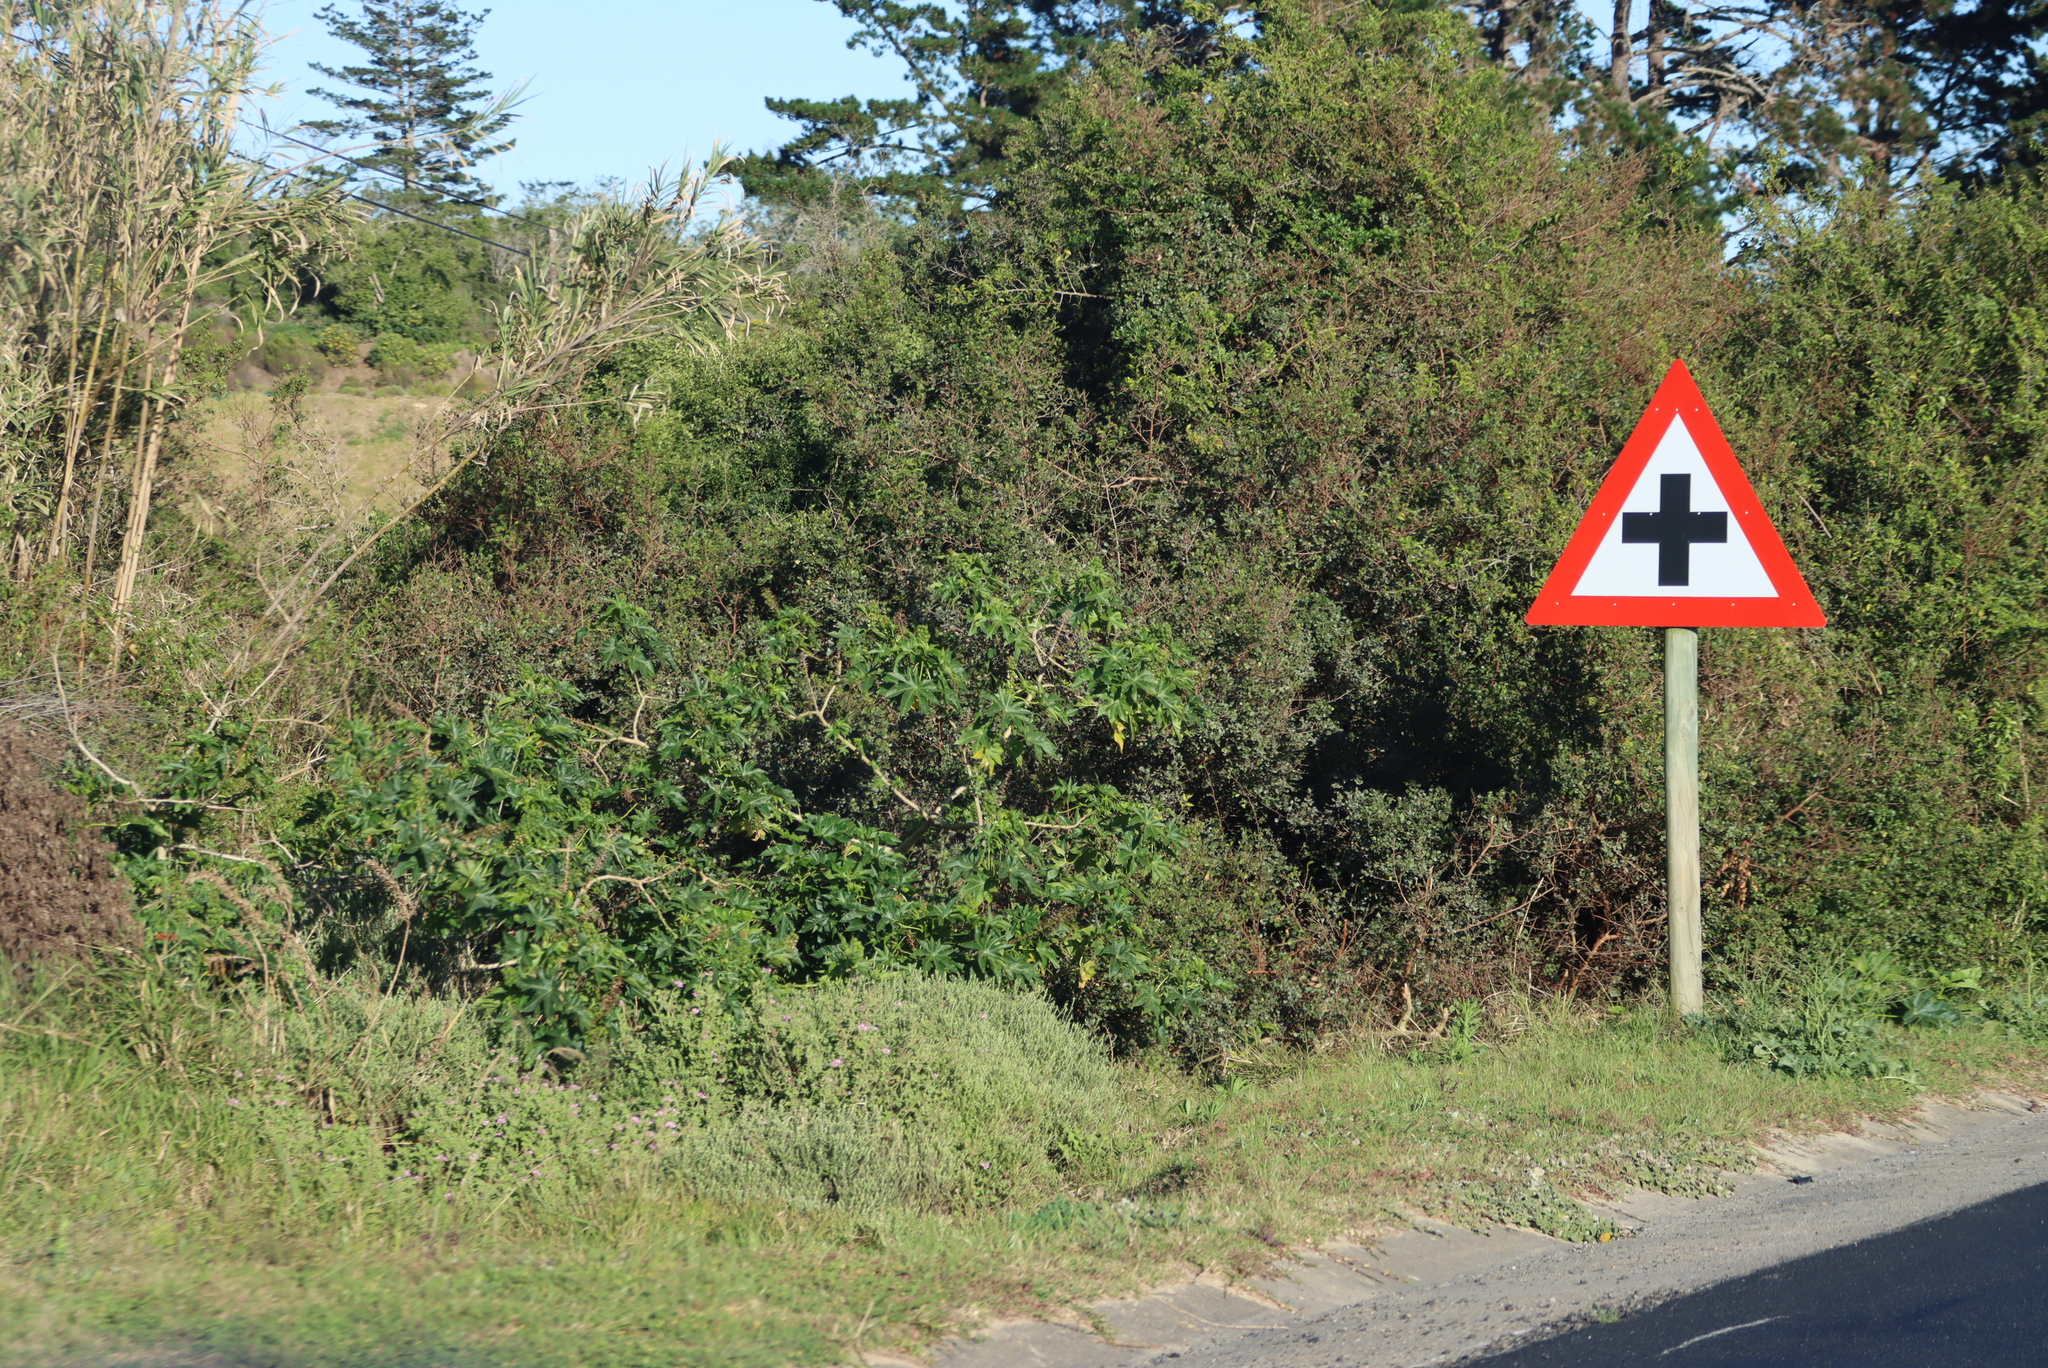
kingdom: Plantae
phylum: Tracheophyta
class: Magnoliopsida
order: Malpighiales
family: Euphorbiaceae
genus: Ricinus
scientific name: Ricinus communis
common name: Castor-oil-plant
